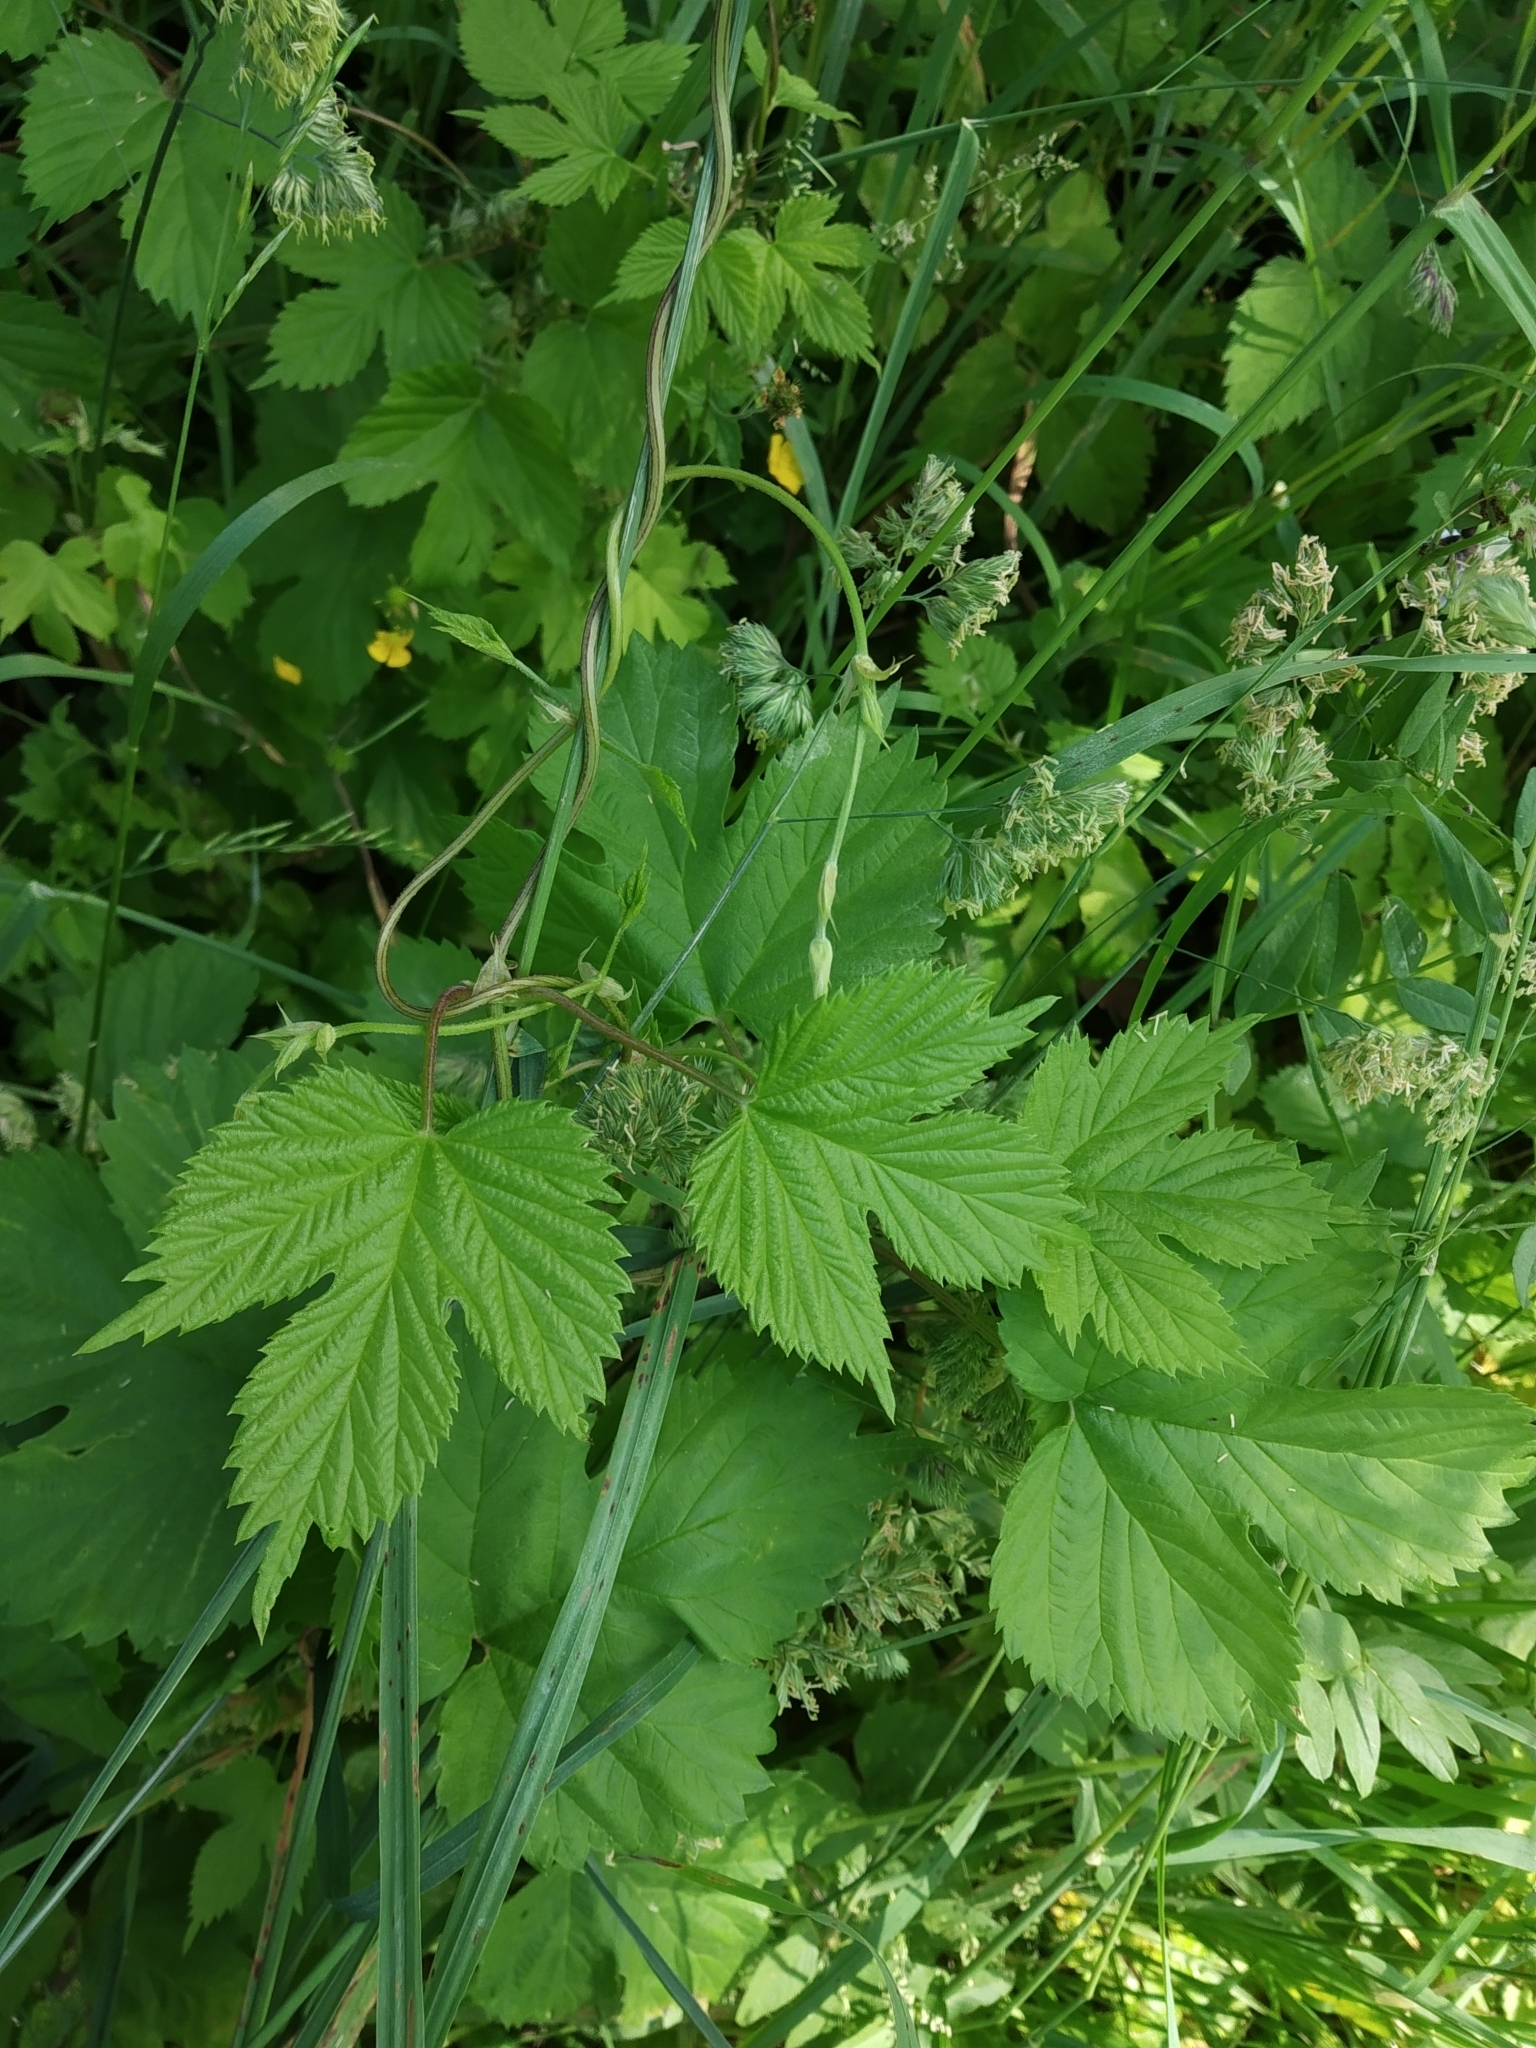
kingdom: Plantae
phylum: Tracheophyta
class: Magnoliopsida
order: Rosales
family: Cannabaceae
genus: Humulus
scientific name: Humulus lupulus
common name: Hop
